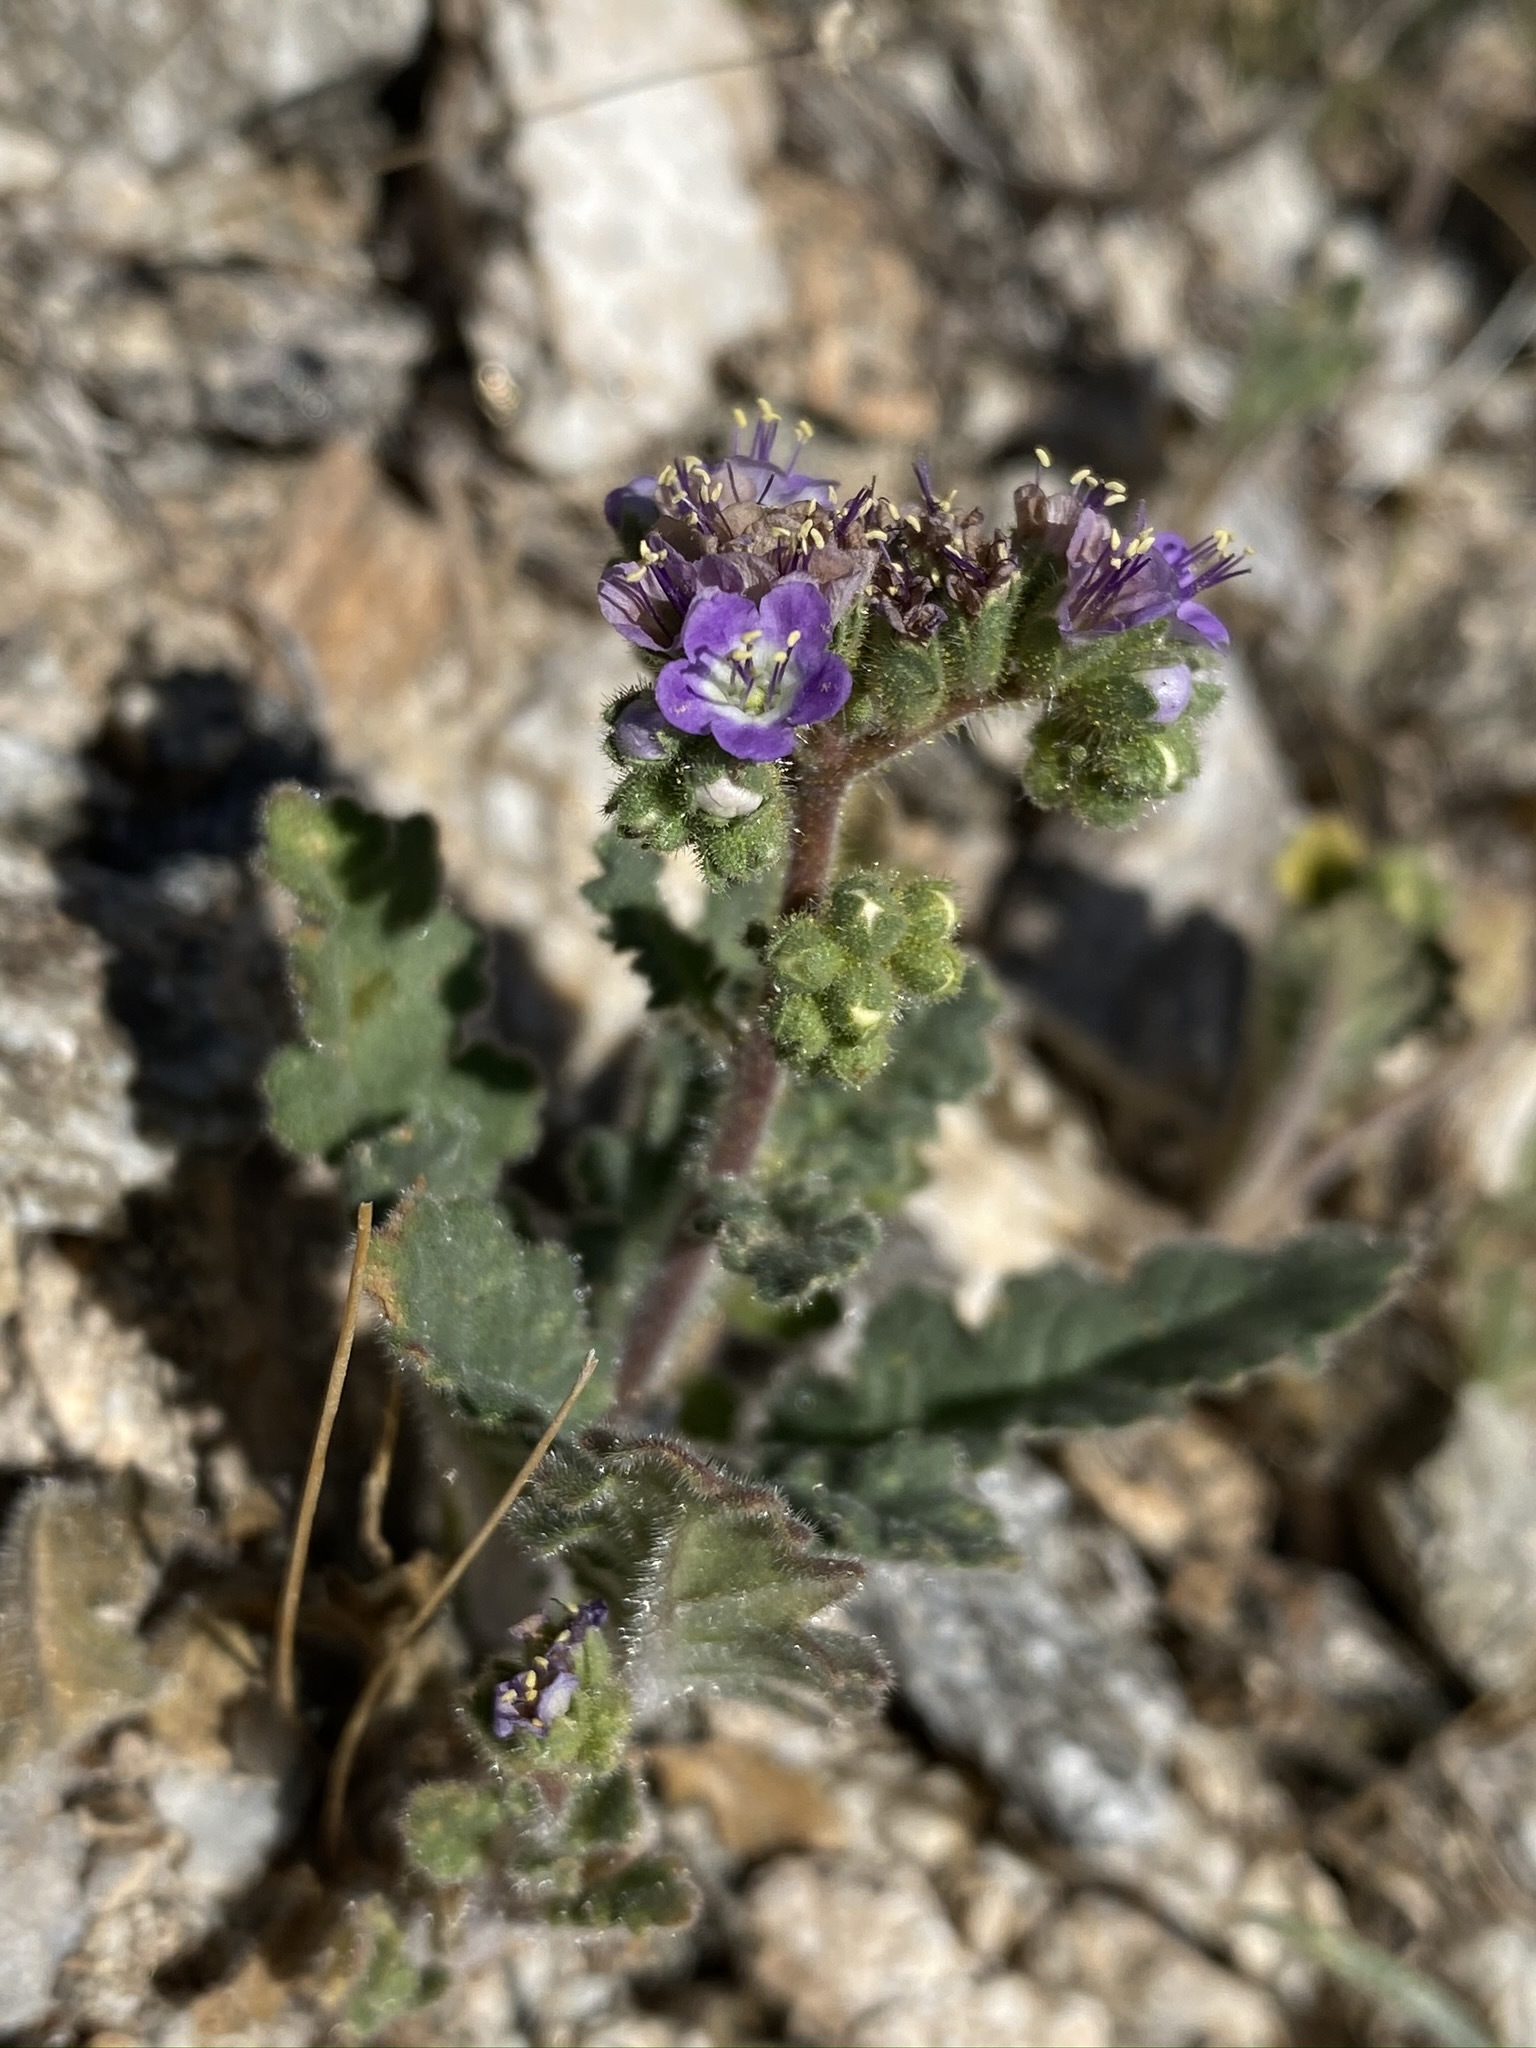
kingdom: Plantae
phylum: Tracheophyta
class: Magnoliopsida
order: Boraginales
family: Hydrophyllaceae
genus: Phacelia
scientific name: Phacelia minutiflora
